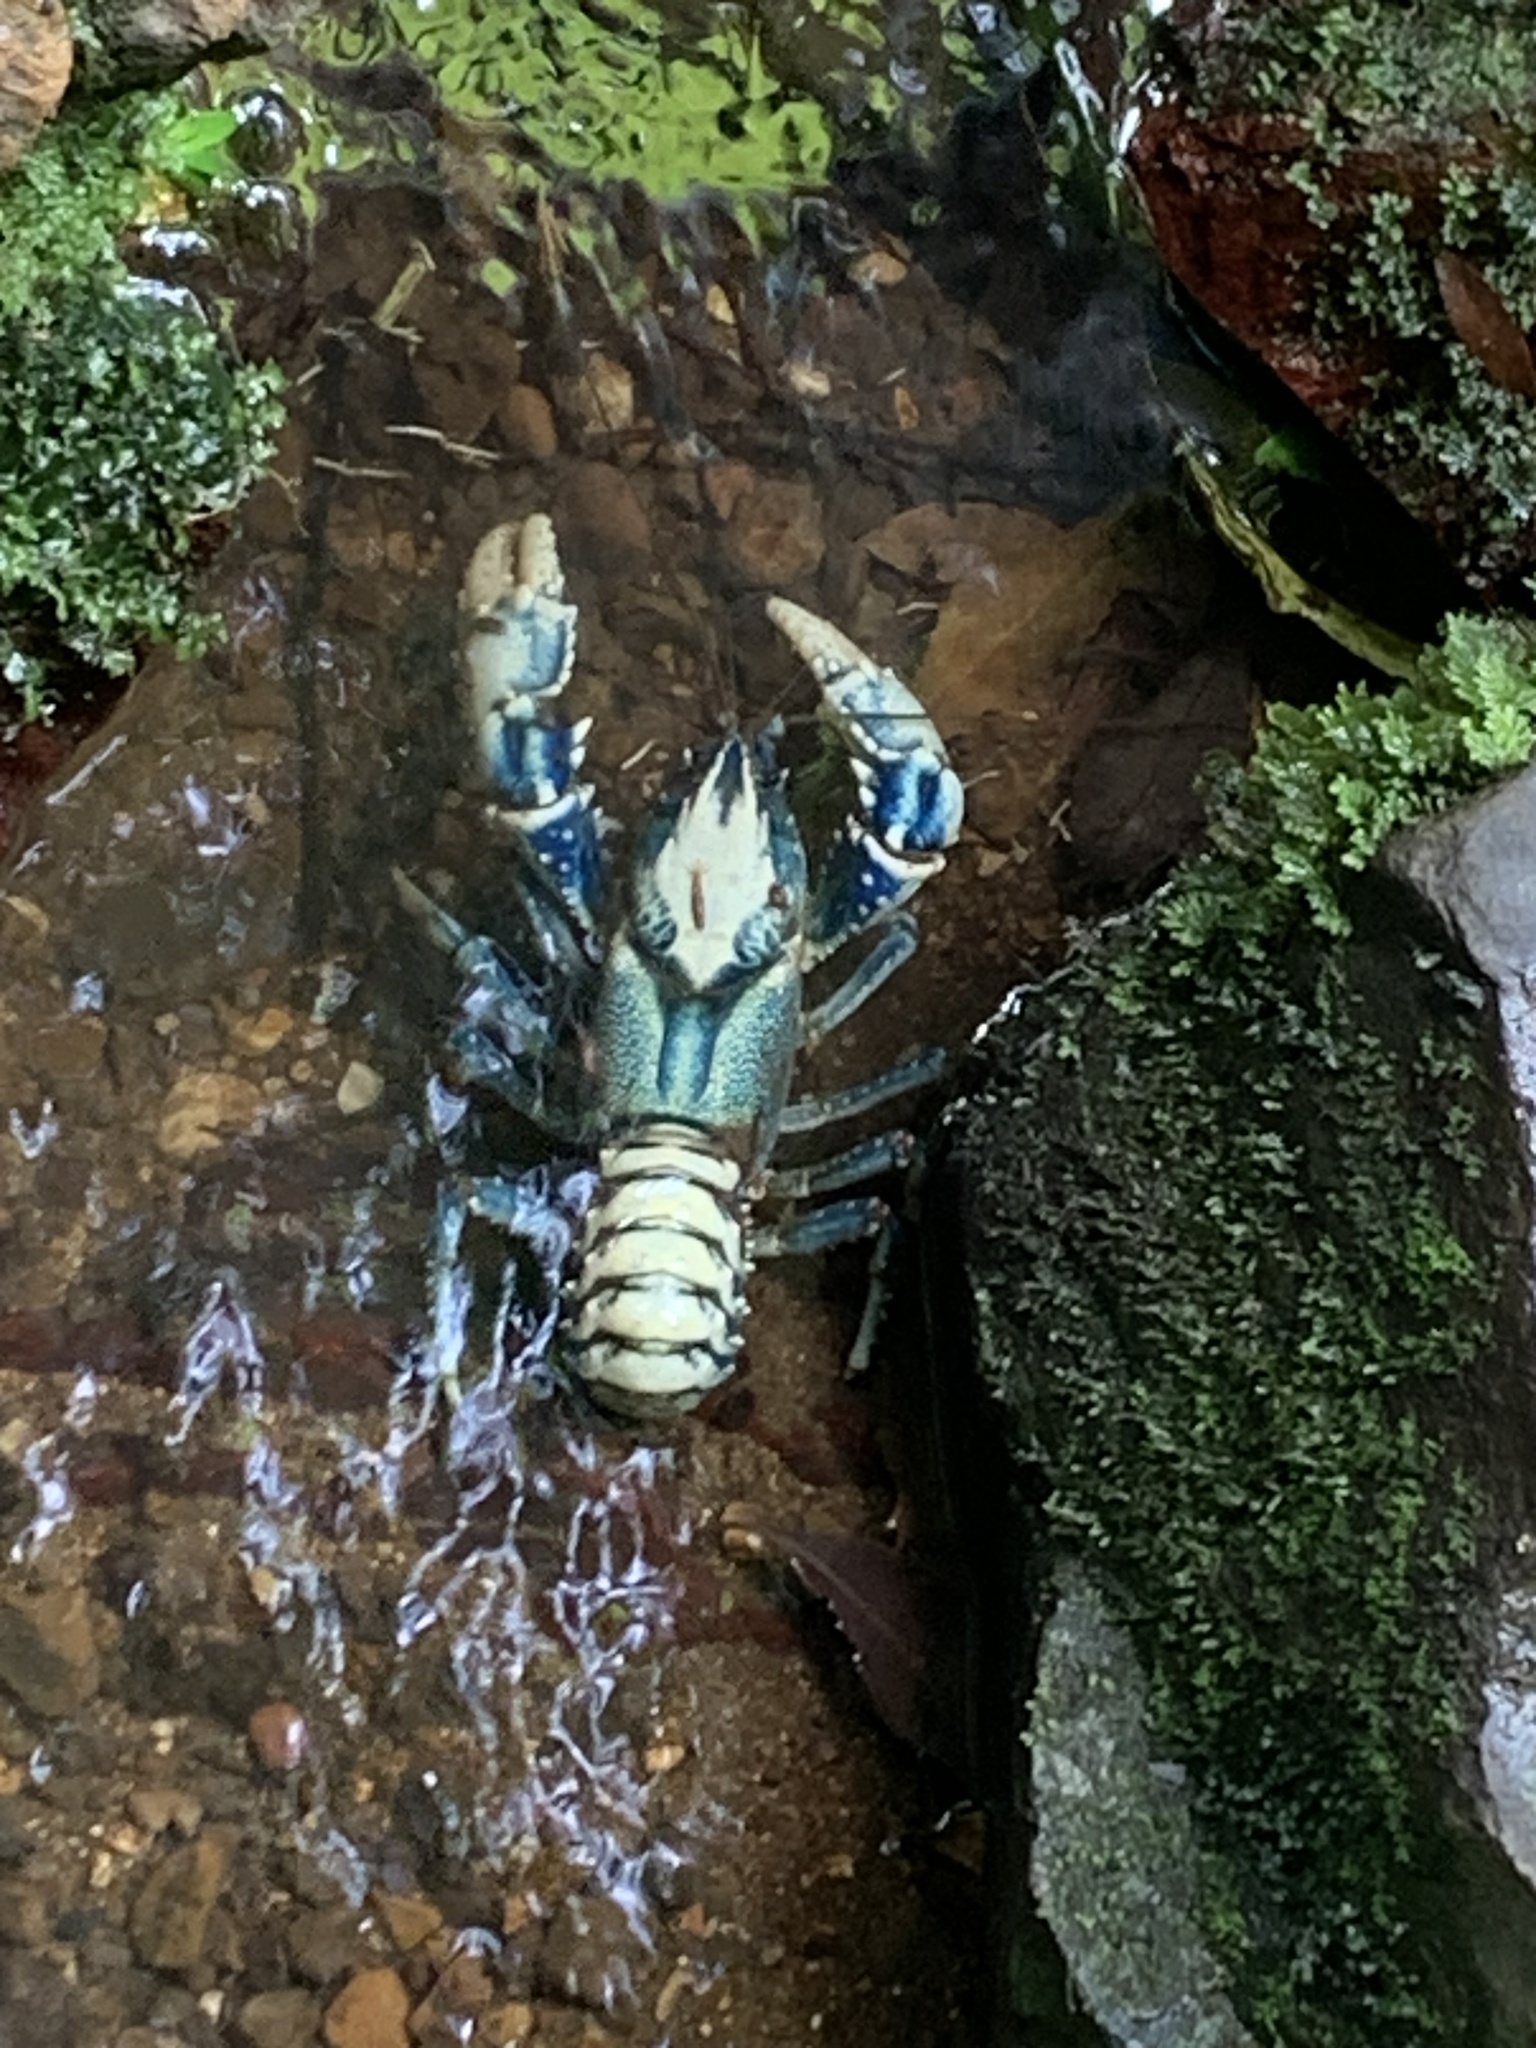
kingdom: Animalia
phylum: Arthropoda
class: Malacostraca
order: Decapoda
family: Parastacidae
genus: Euastacus
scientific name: Euastacus sulcatus
